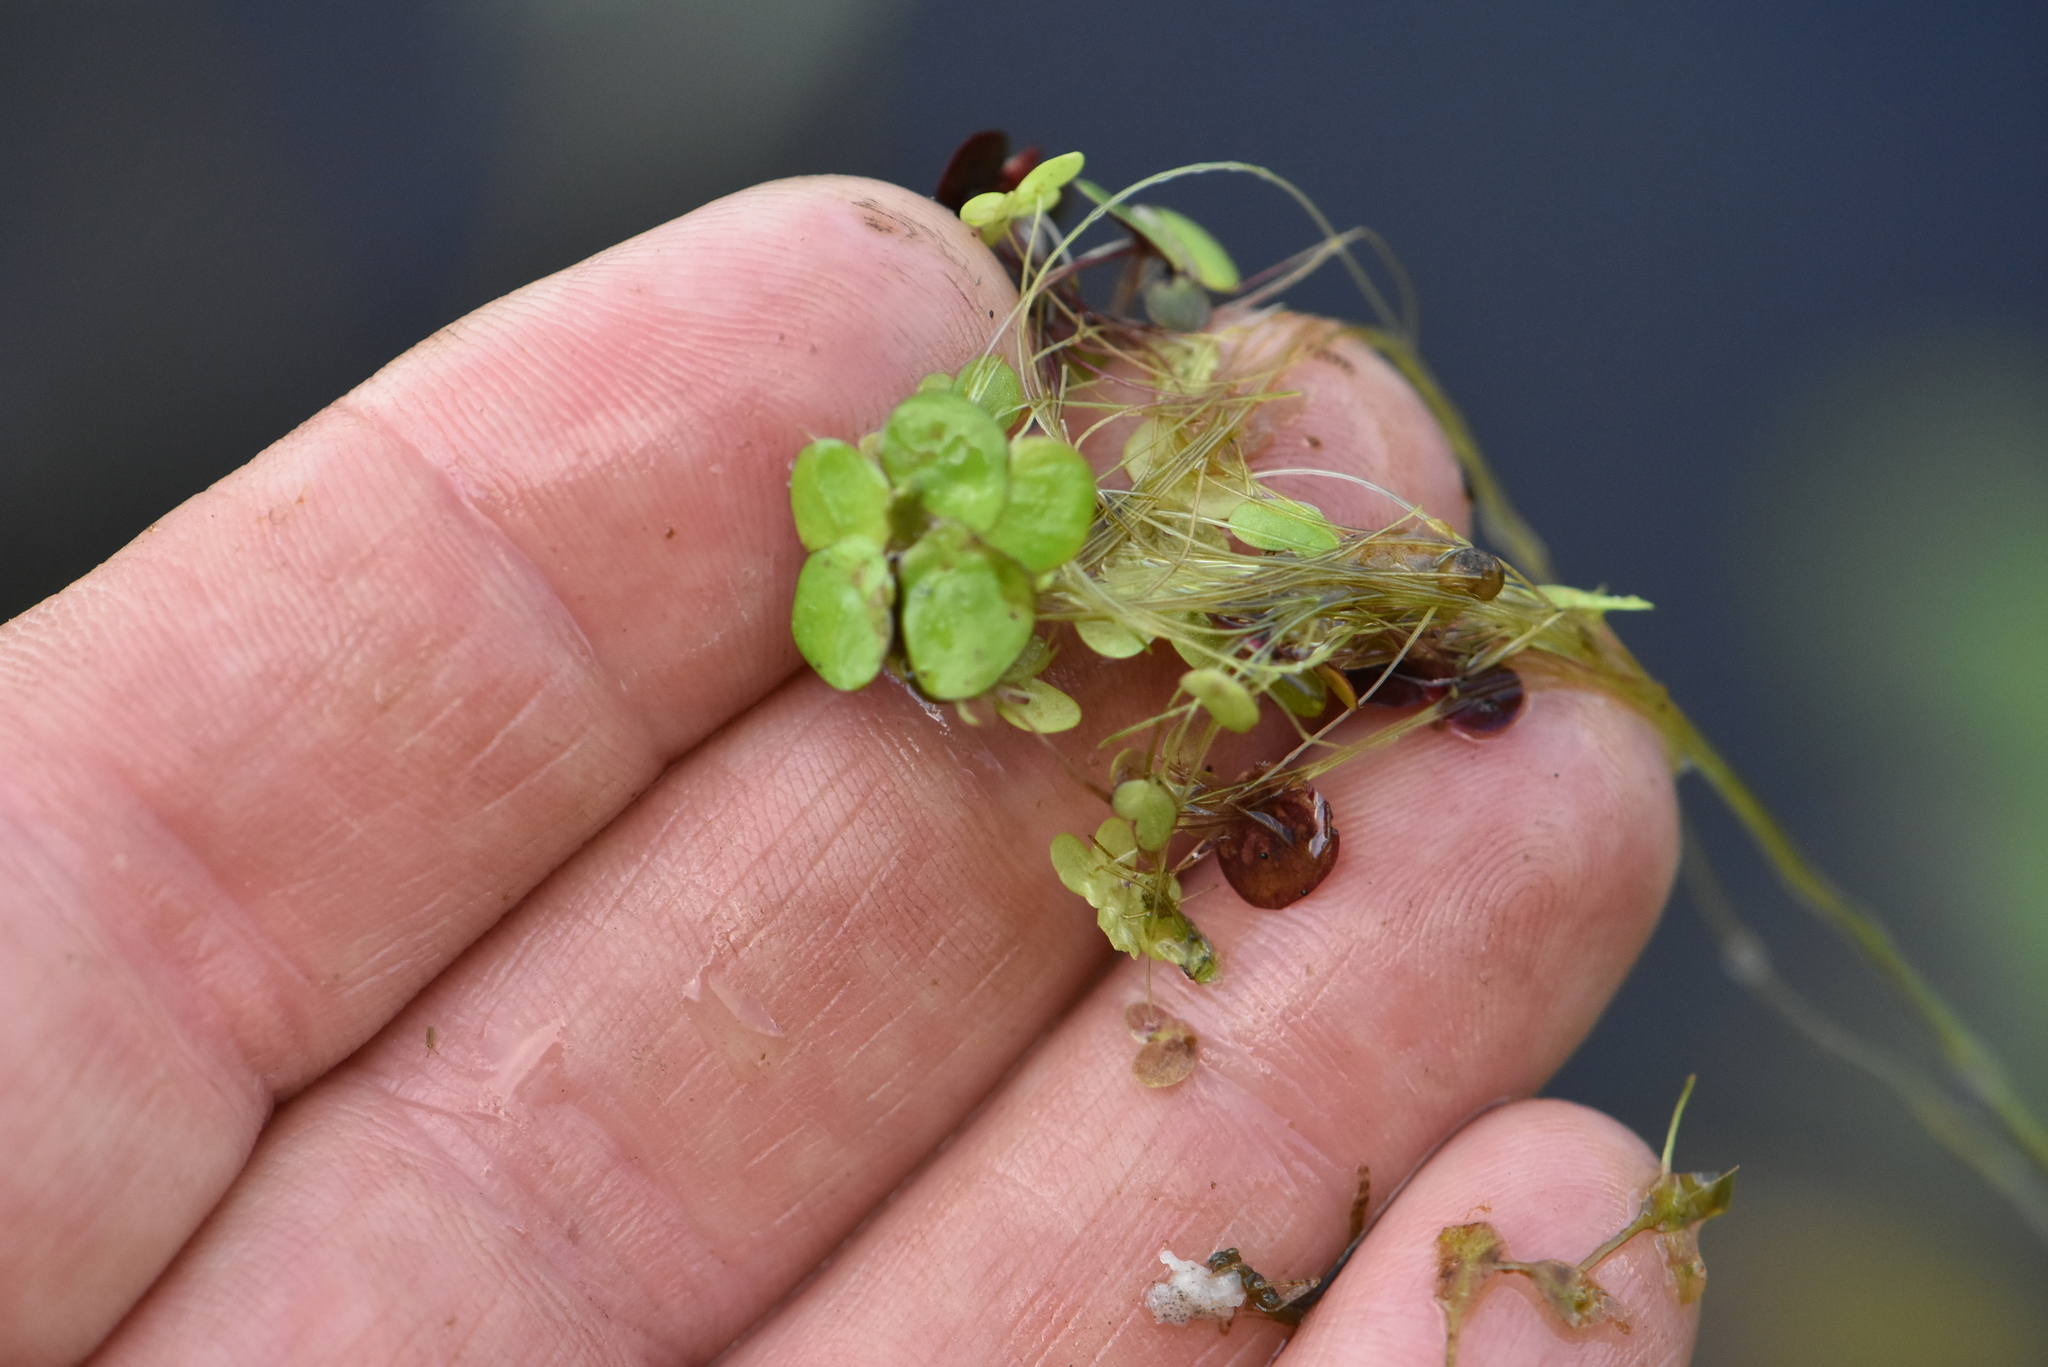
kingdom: Plantae
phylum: Tracheophyta
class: Liliopsida
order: Alismatales
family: Araceae
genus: Spirodela
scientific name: Spirodela polyrhiza
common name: Great duckweed
